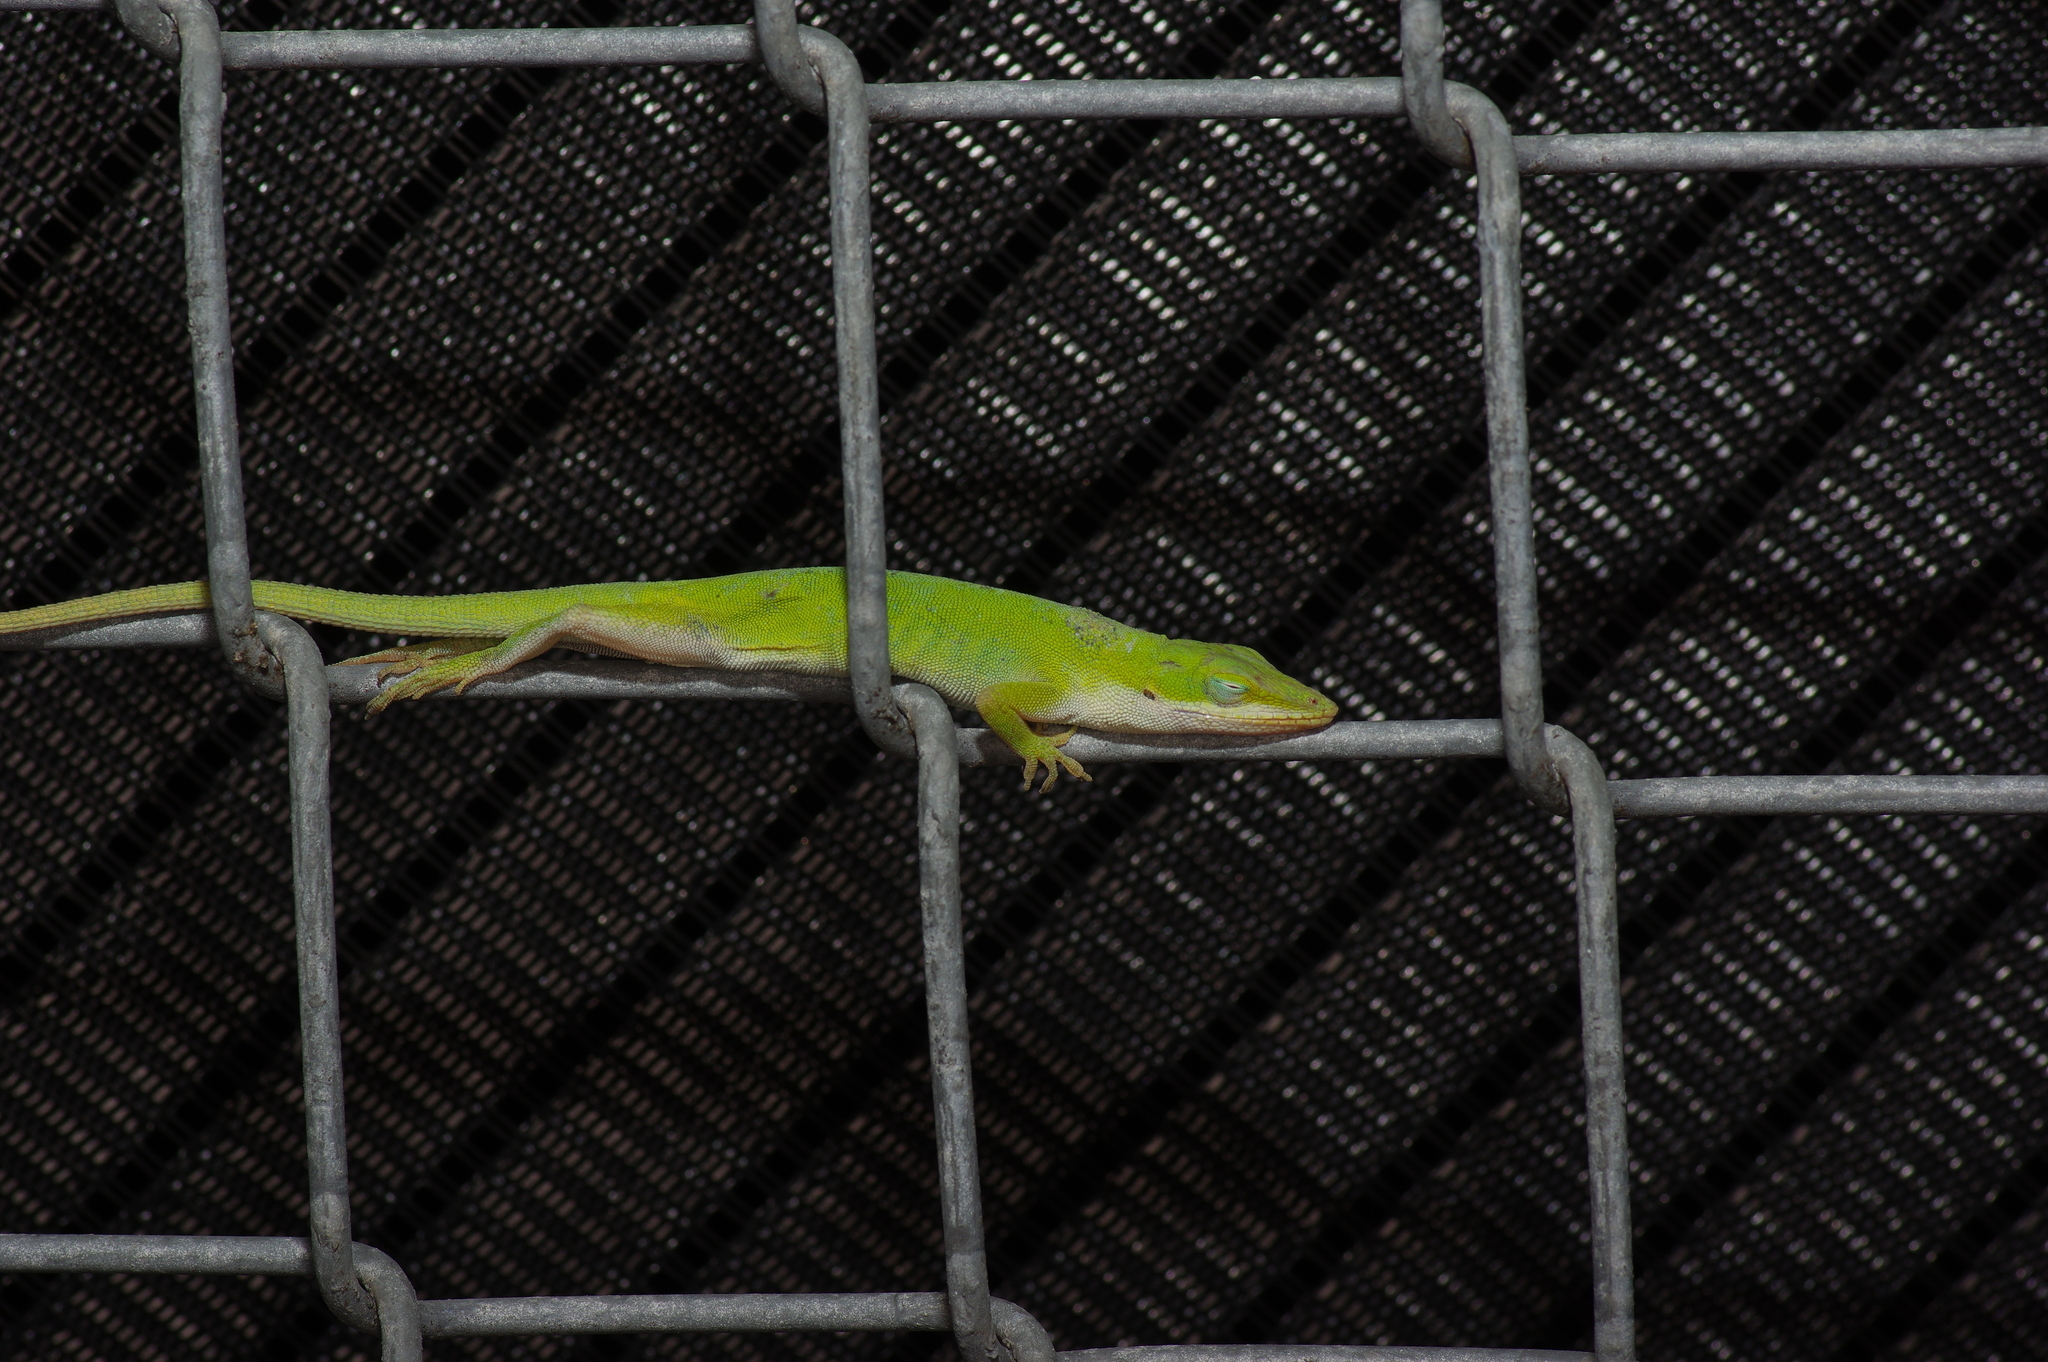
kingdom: Animalia
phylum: Chordata
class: Squamata
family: Dactyloidae
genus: Anolis
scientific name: Anolis carolinensis
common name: Green anole
